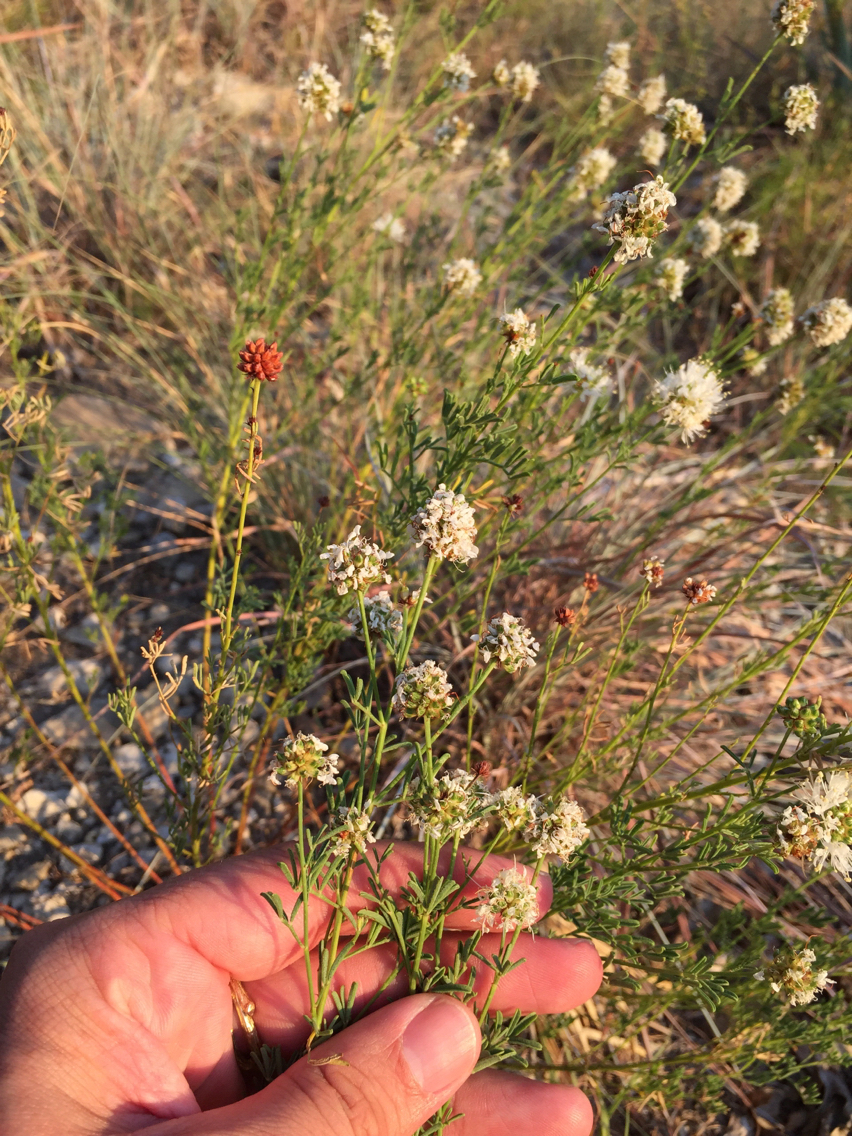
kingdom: Plantae
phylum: Tracheophyta
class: Magnoliopsida
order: Fabales
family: Fabaceae
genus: Dalea
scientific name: Dalea multiflora
